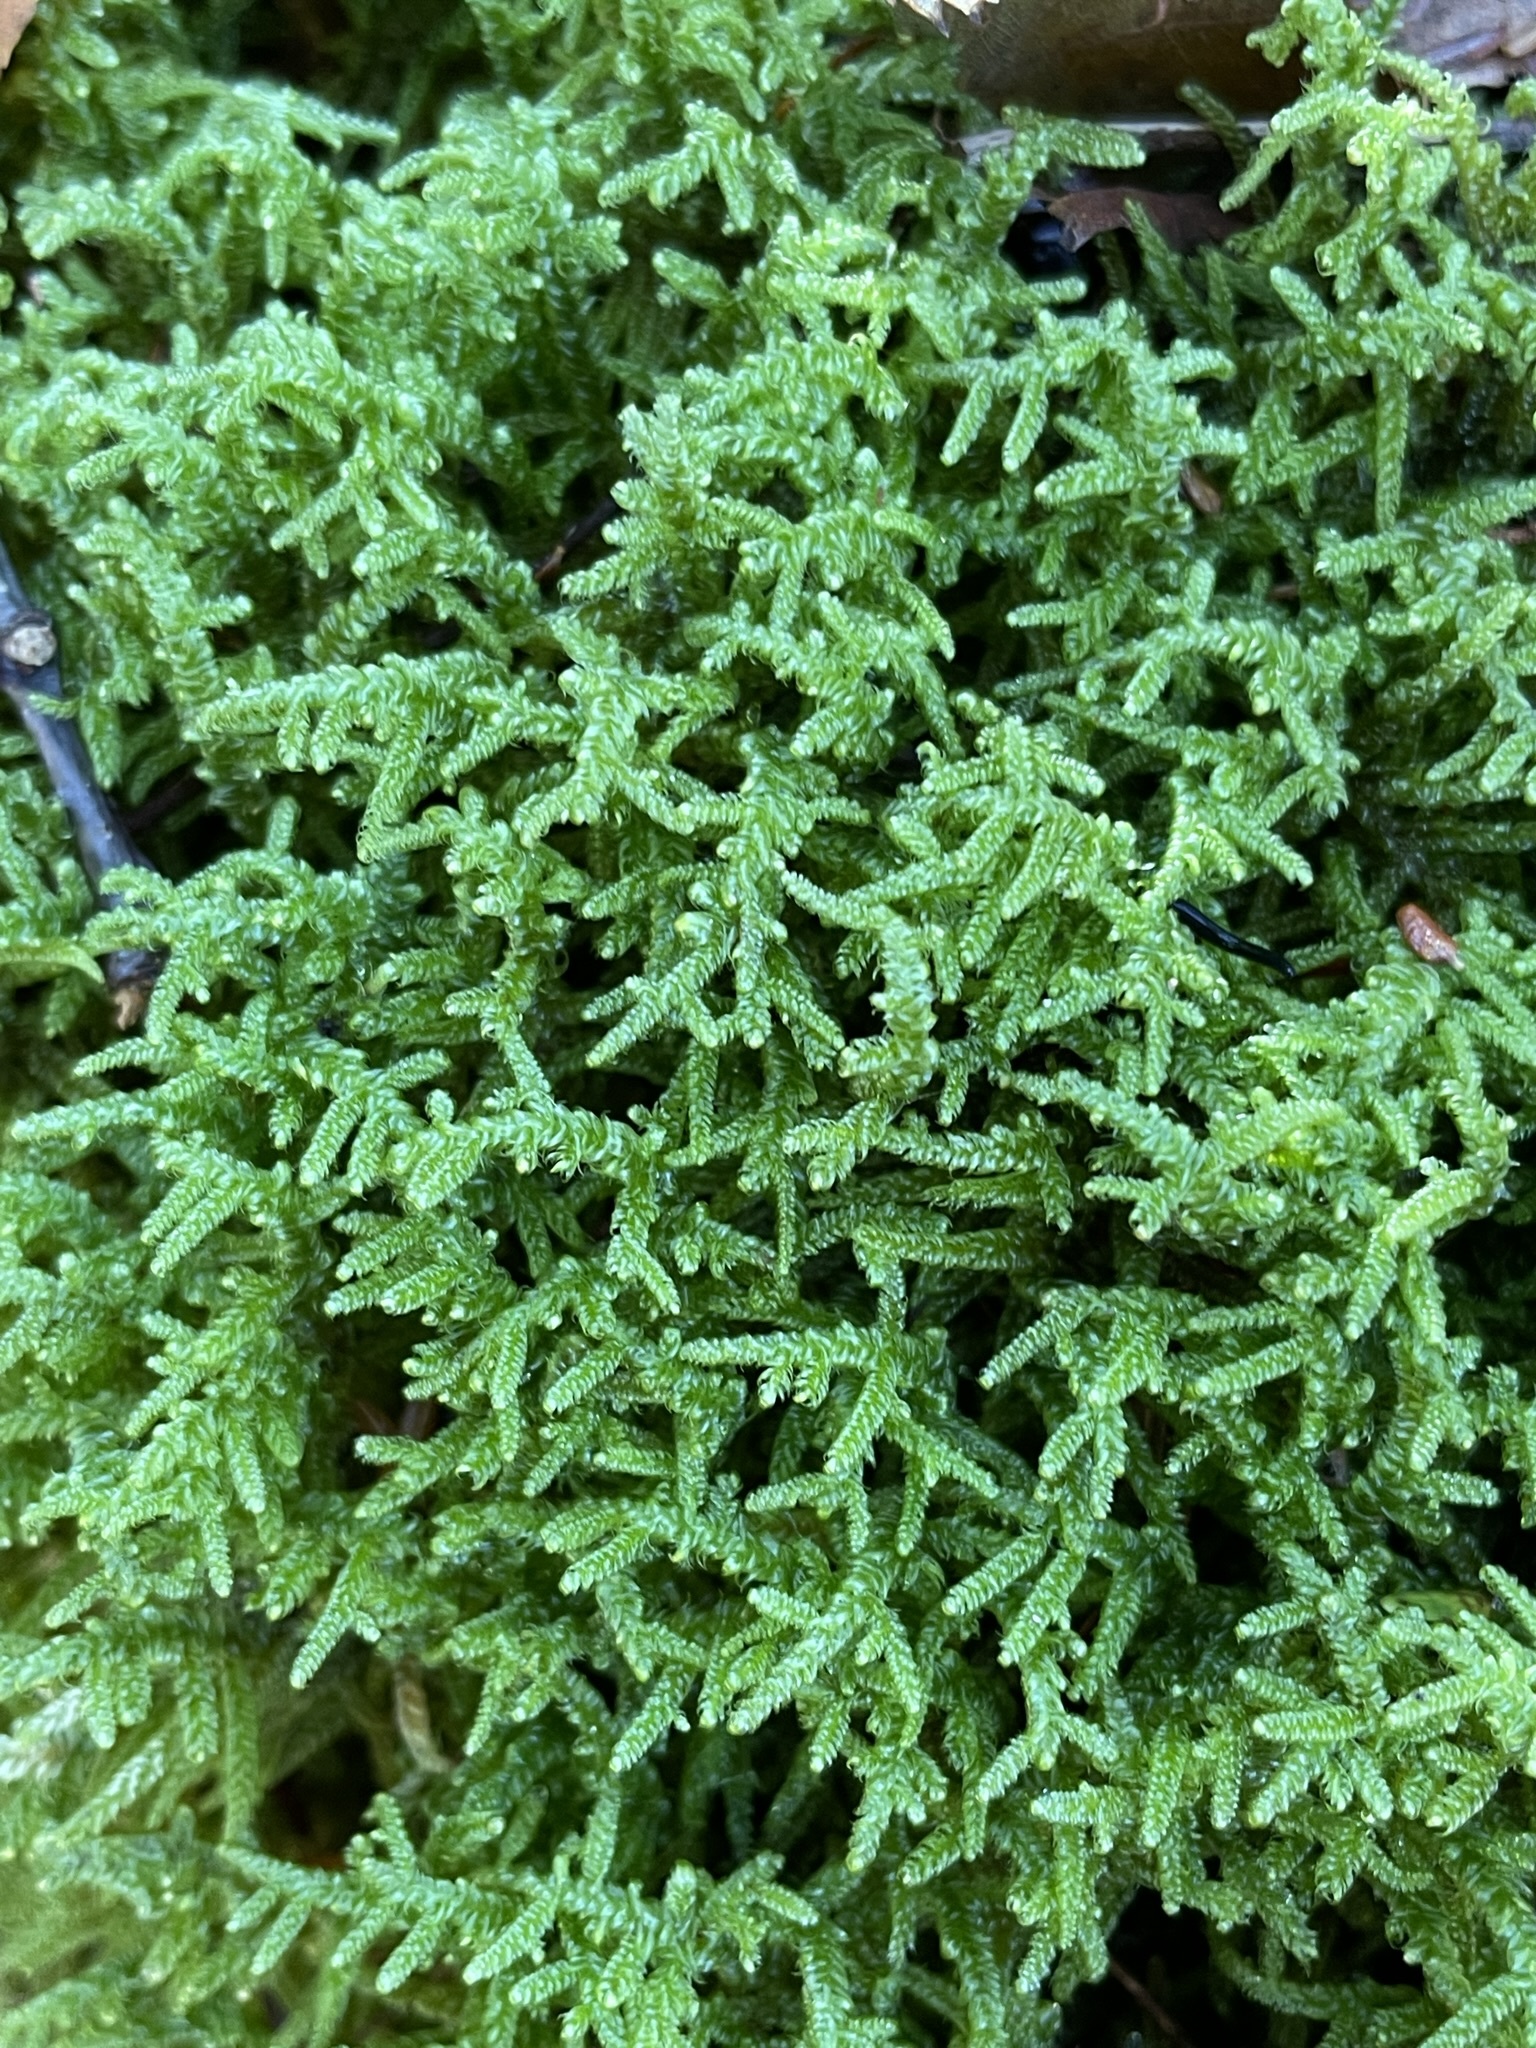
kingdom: Plantae
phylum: Bryophyta
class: Bryopsida
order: Hypnales
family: Callicladiaceae
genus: Callicladium
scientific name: Callicladium imponens
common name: Brocade moss
